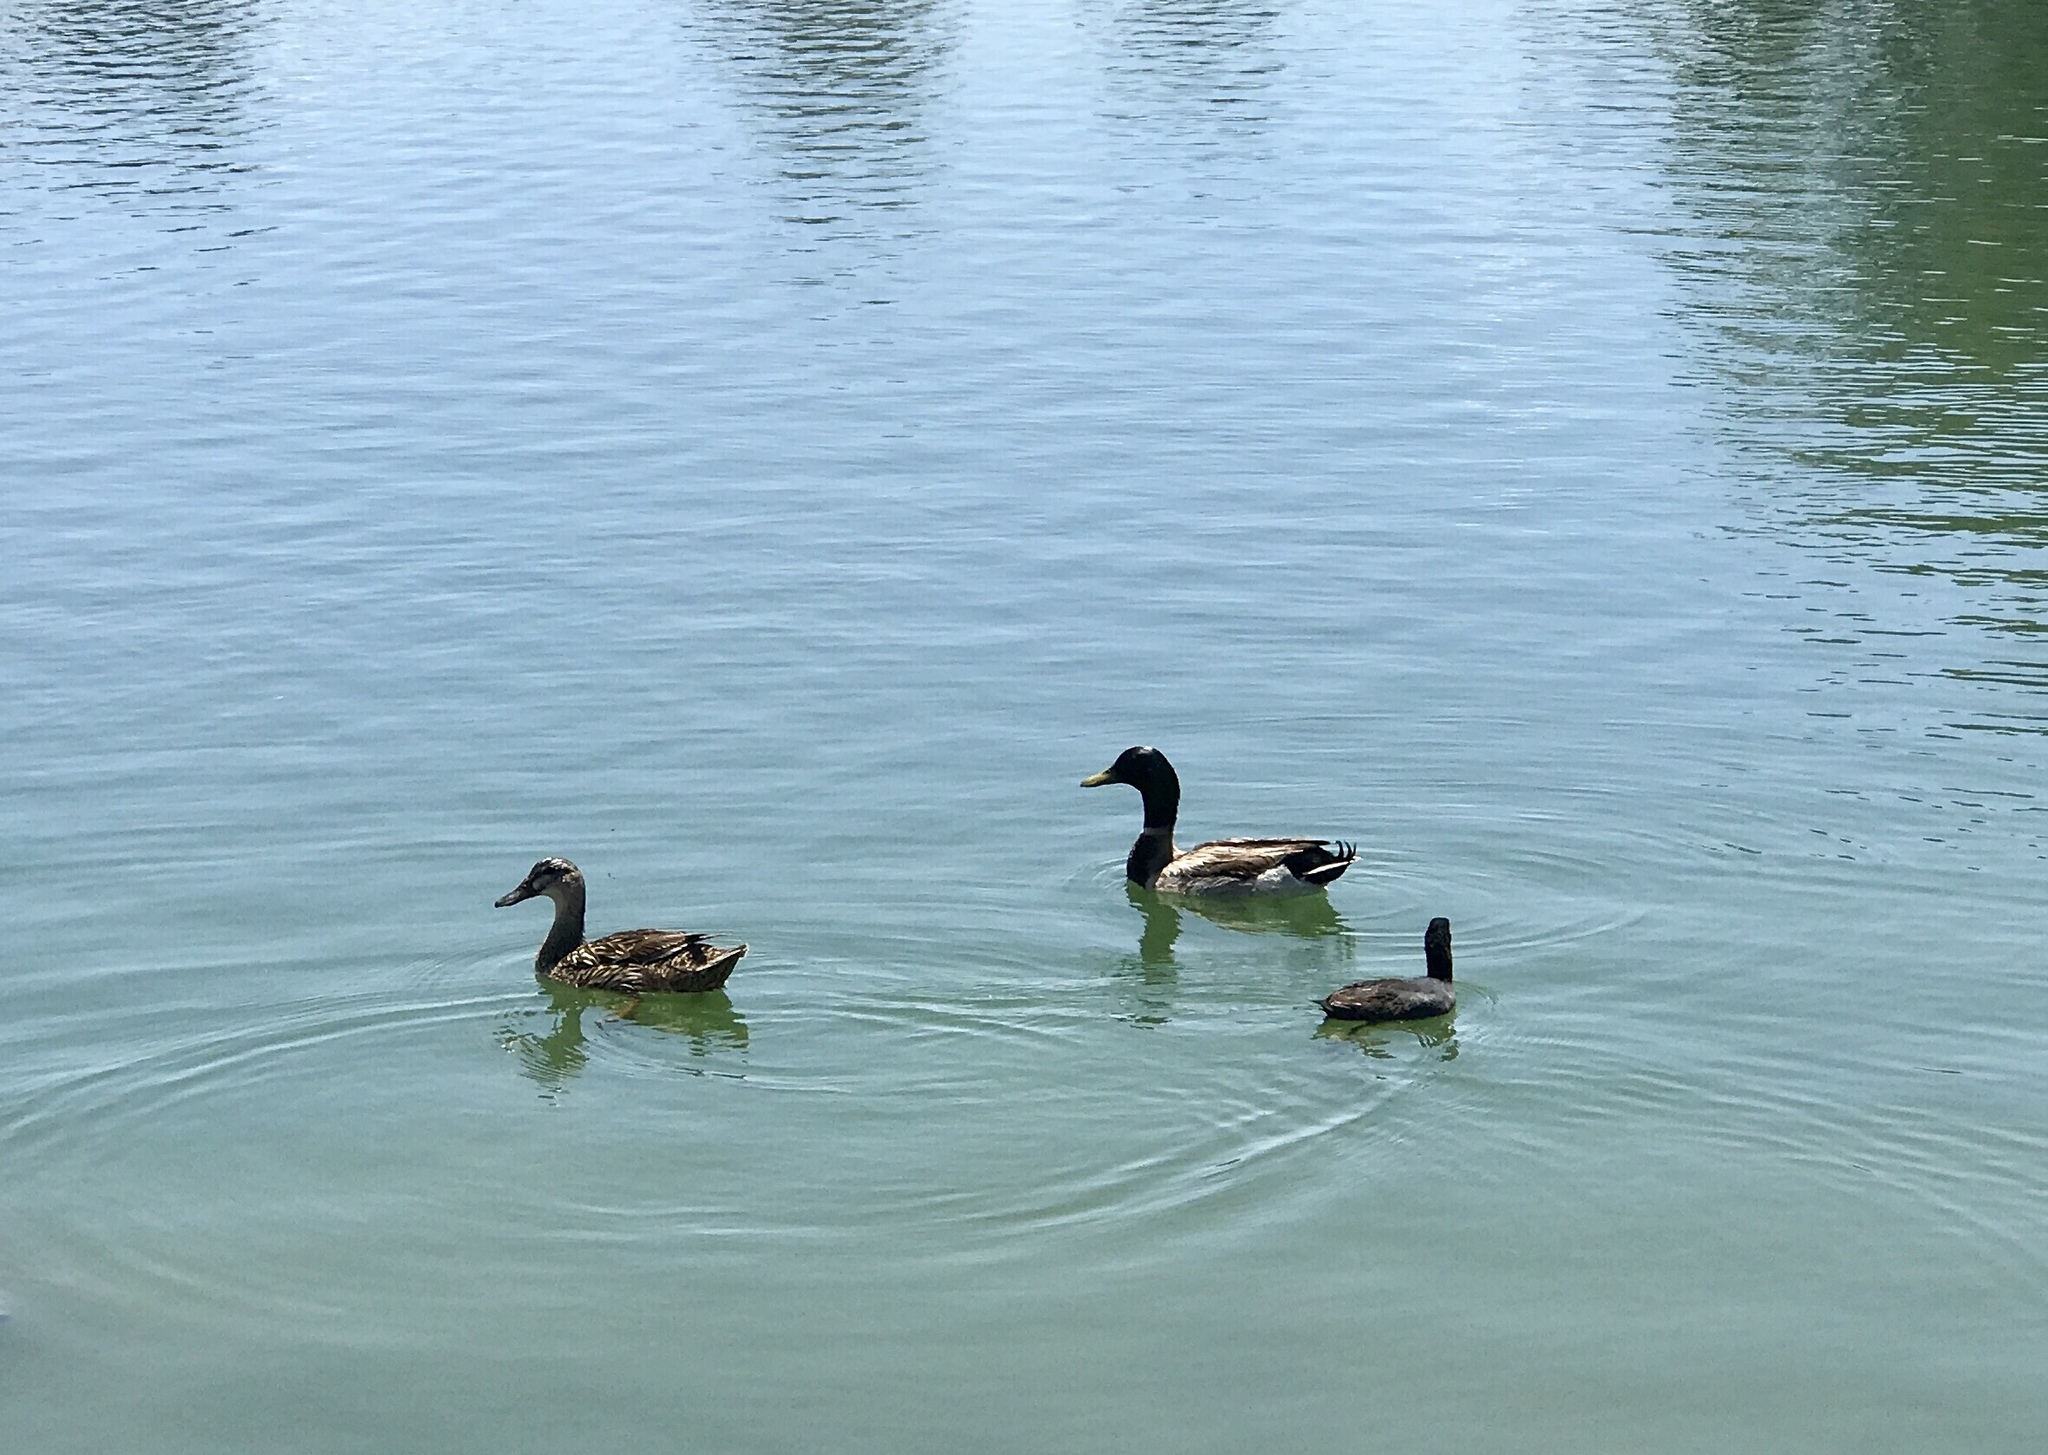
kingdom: Animalia
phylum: Chordata
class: Aves
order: Anseriformes
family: Anatidae
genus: Anas
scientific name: Anas platyrhynchos
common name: Mallard
